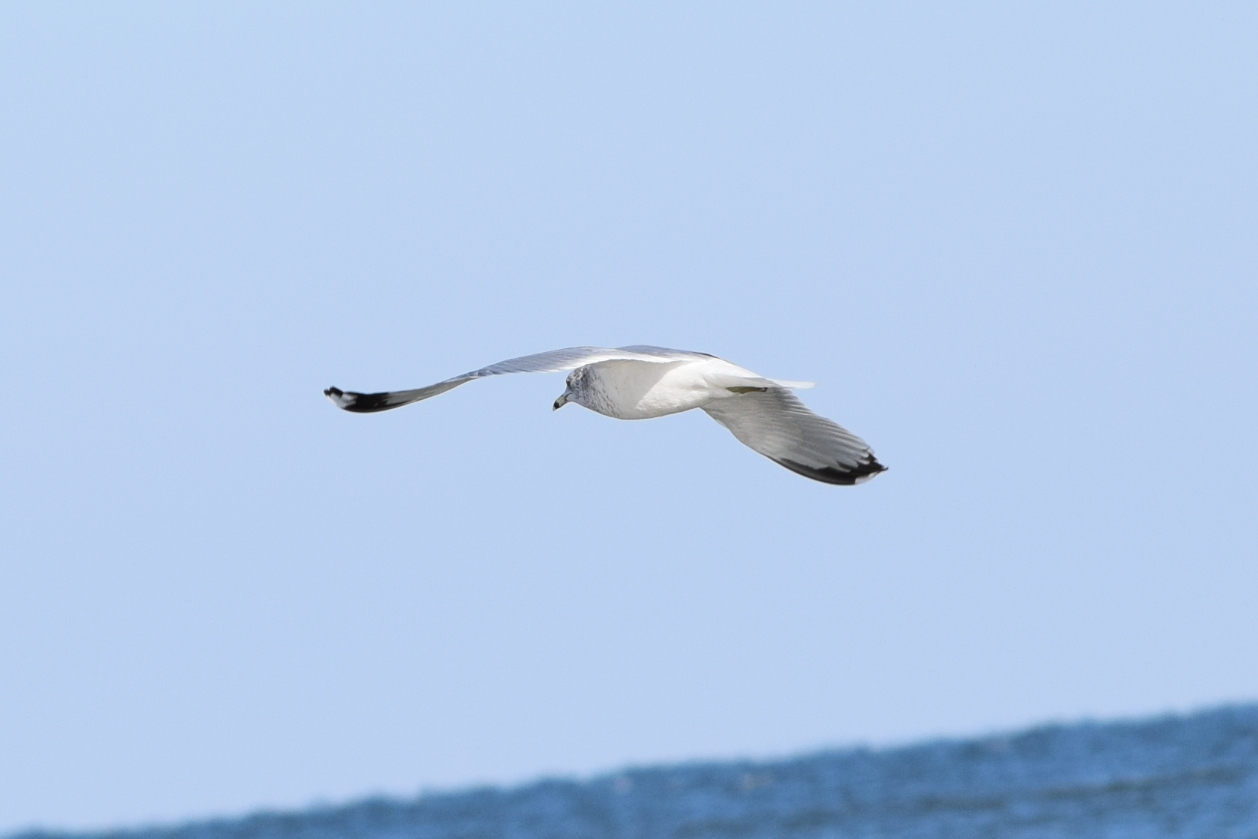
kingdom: Animalia
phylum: Chordata
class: Aves
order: Charadriiformes
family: Laridae
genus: Larus
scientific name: Larus delawarensis
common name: Ring-billed gull
